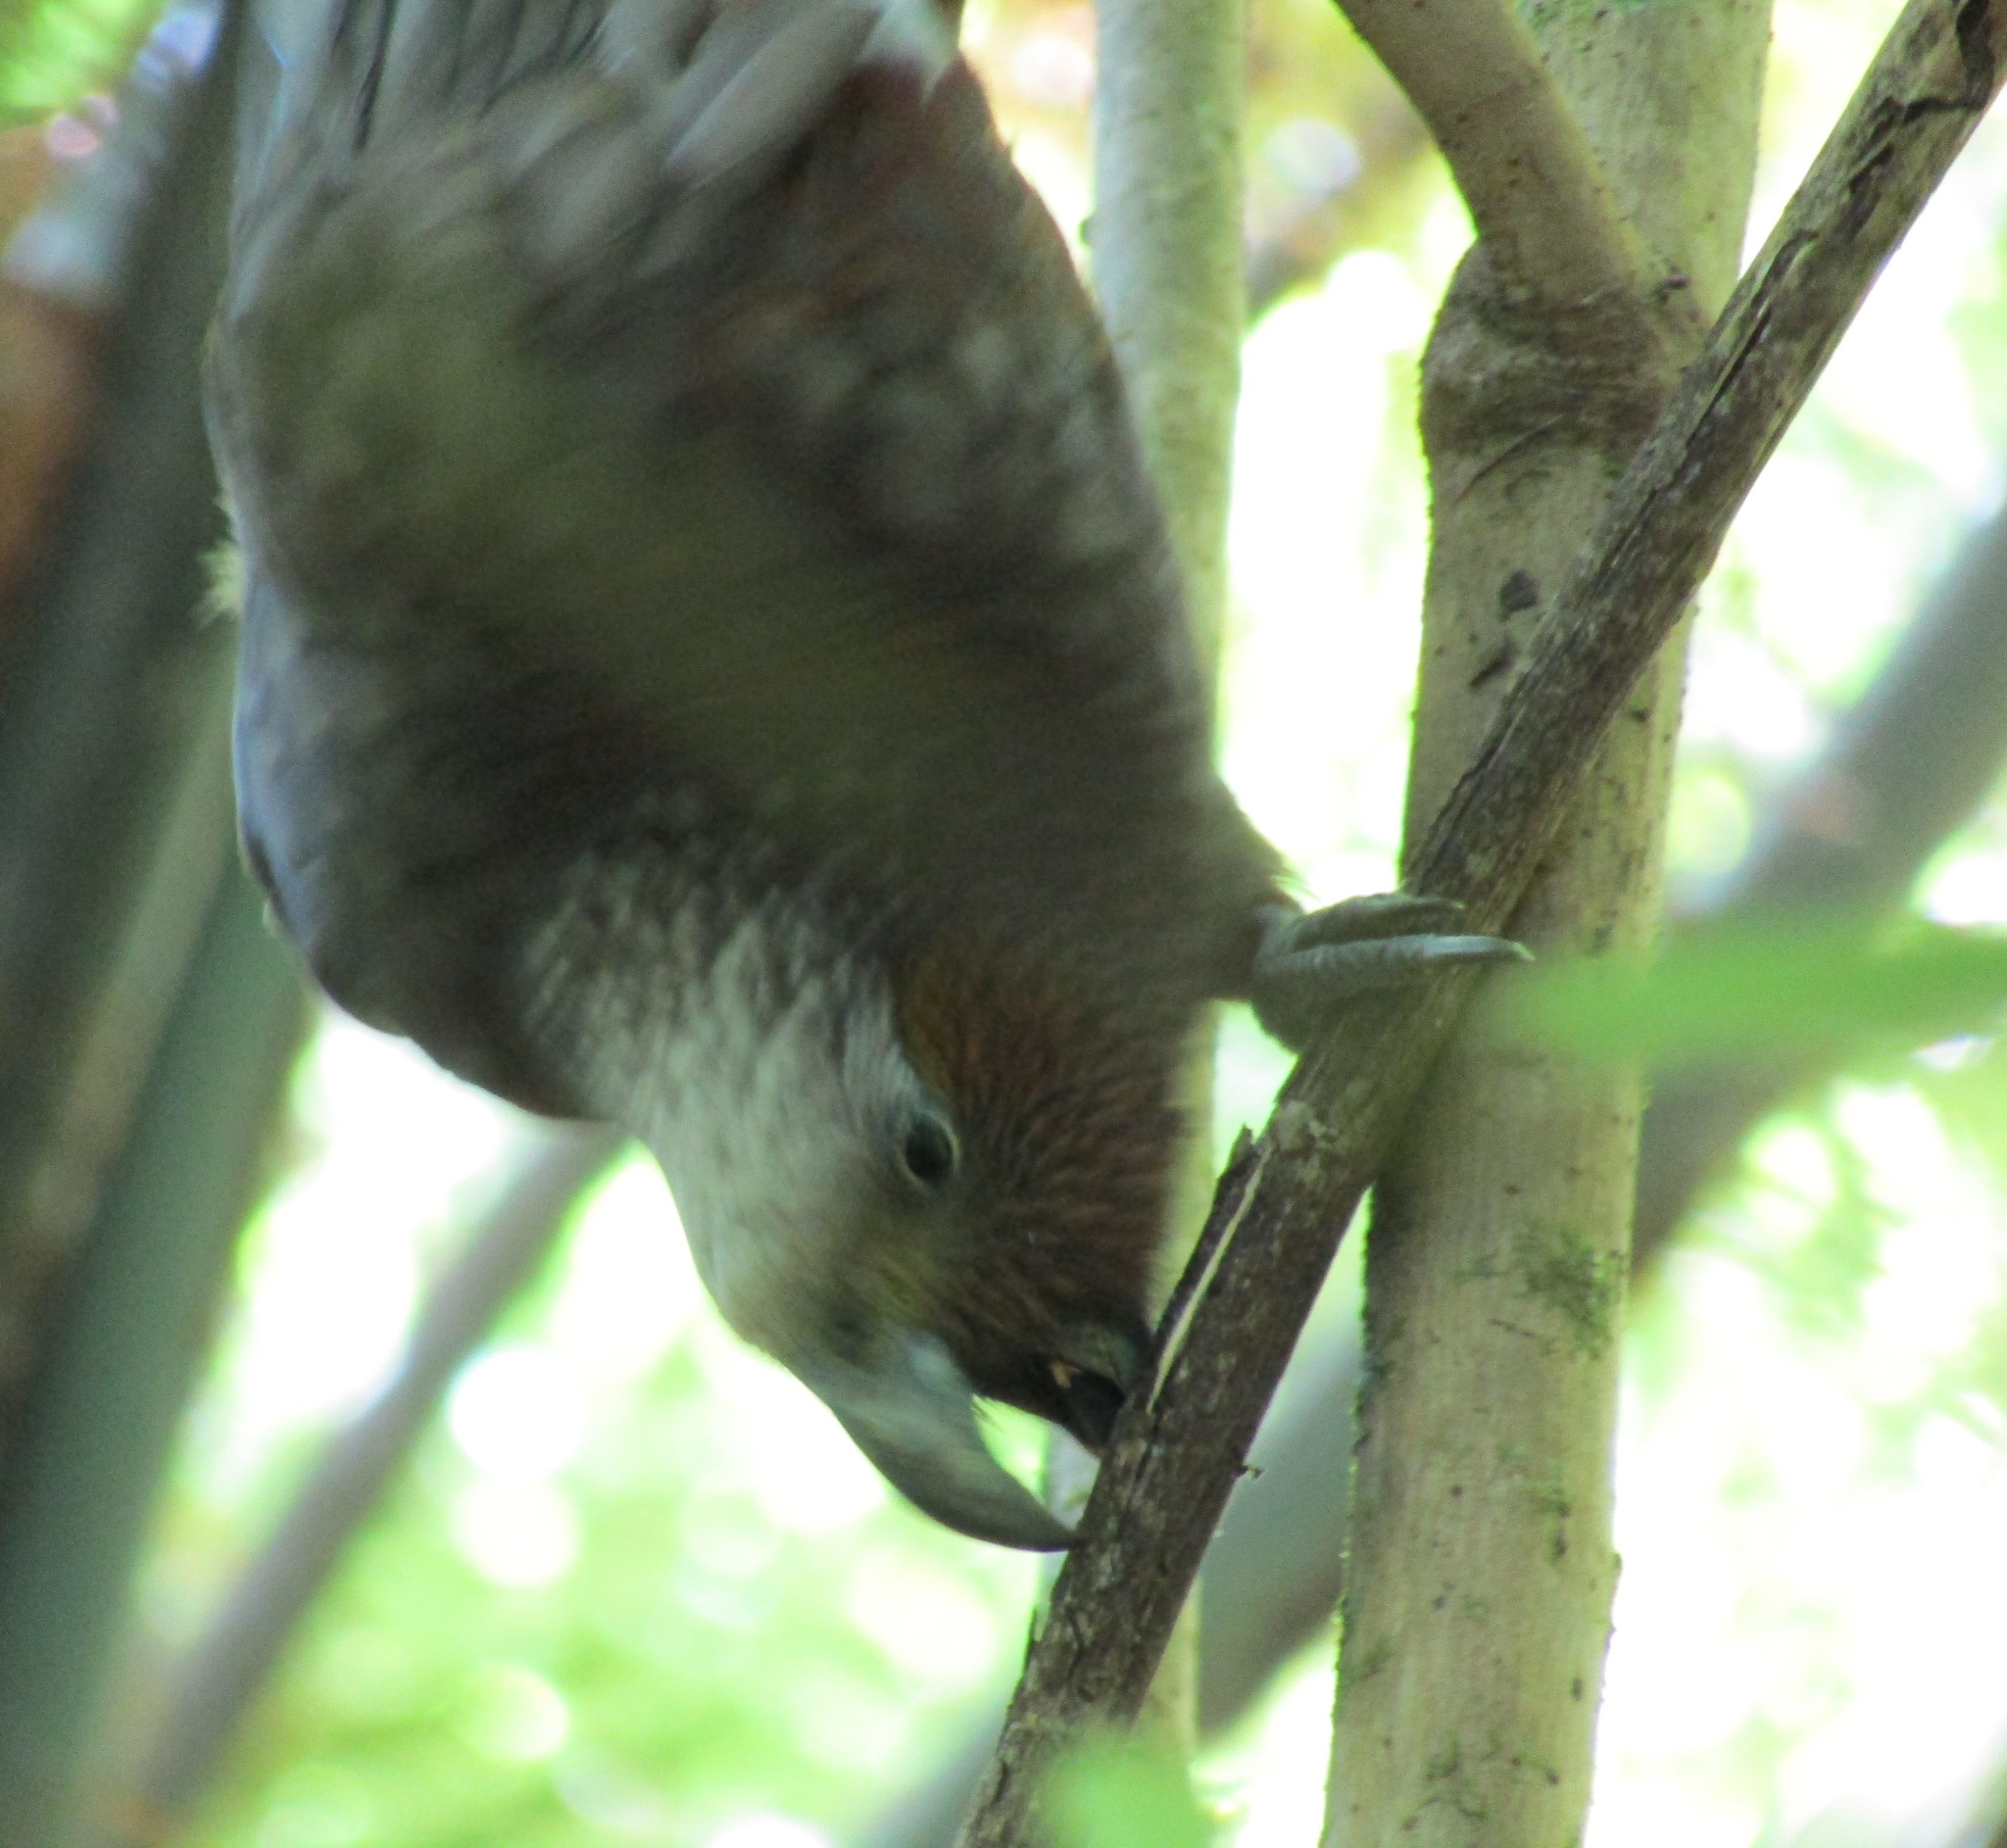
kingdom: Animalia
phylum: Chordata
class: Aves
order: Psittaciformes
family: Psittacidae
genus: Nestor
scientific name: Nestor meridionalis
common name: New zealand kaka
